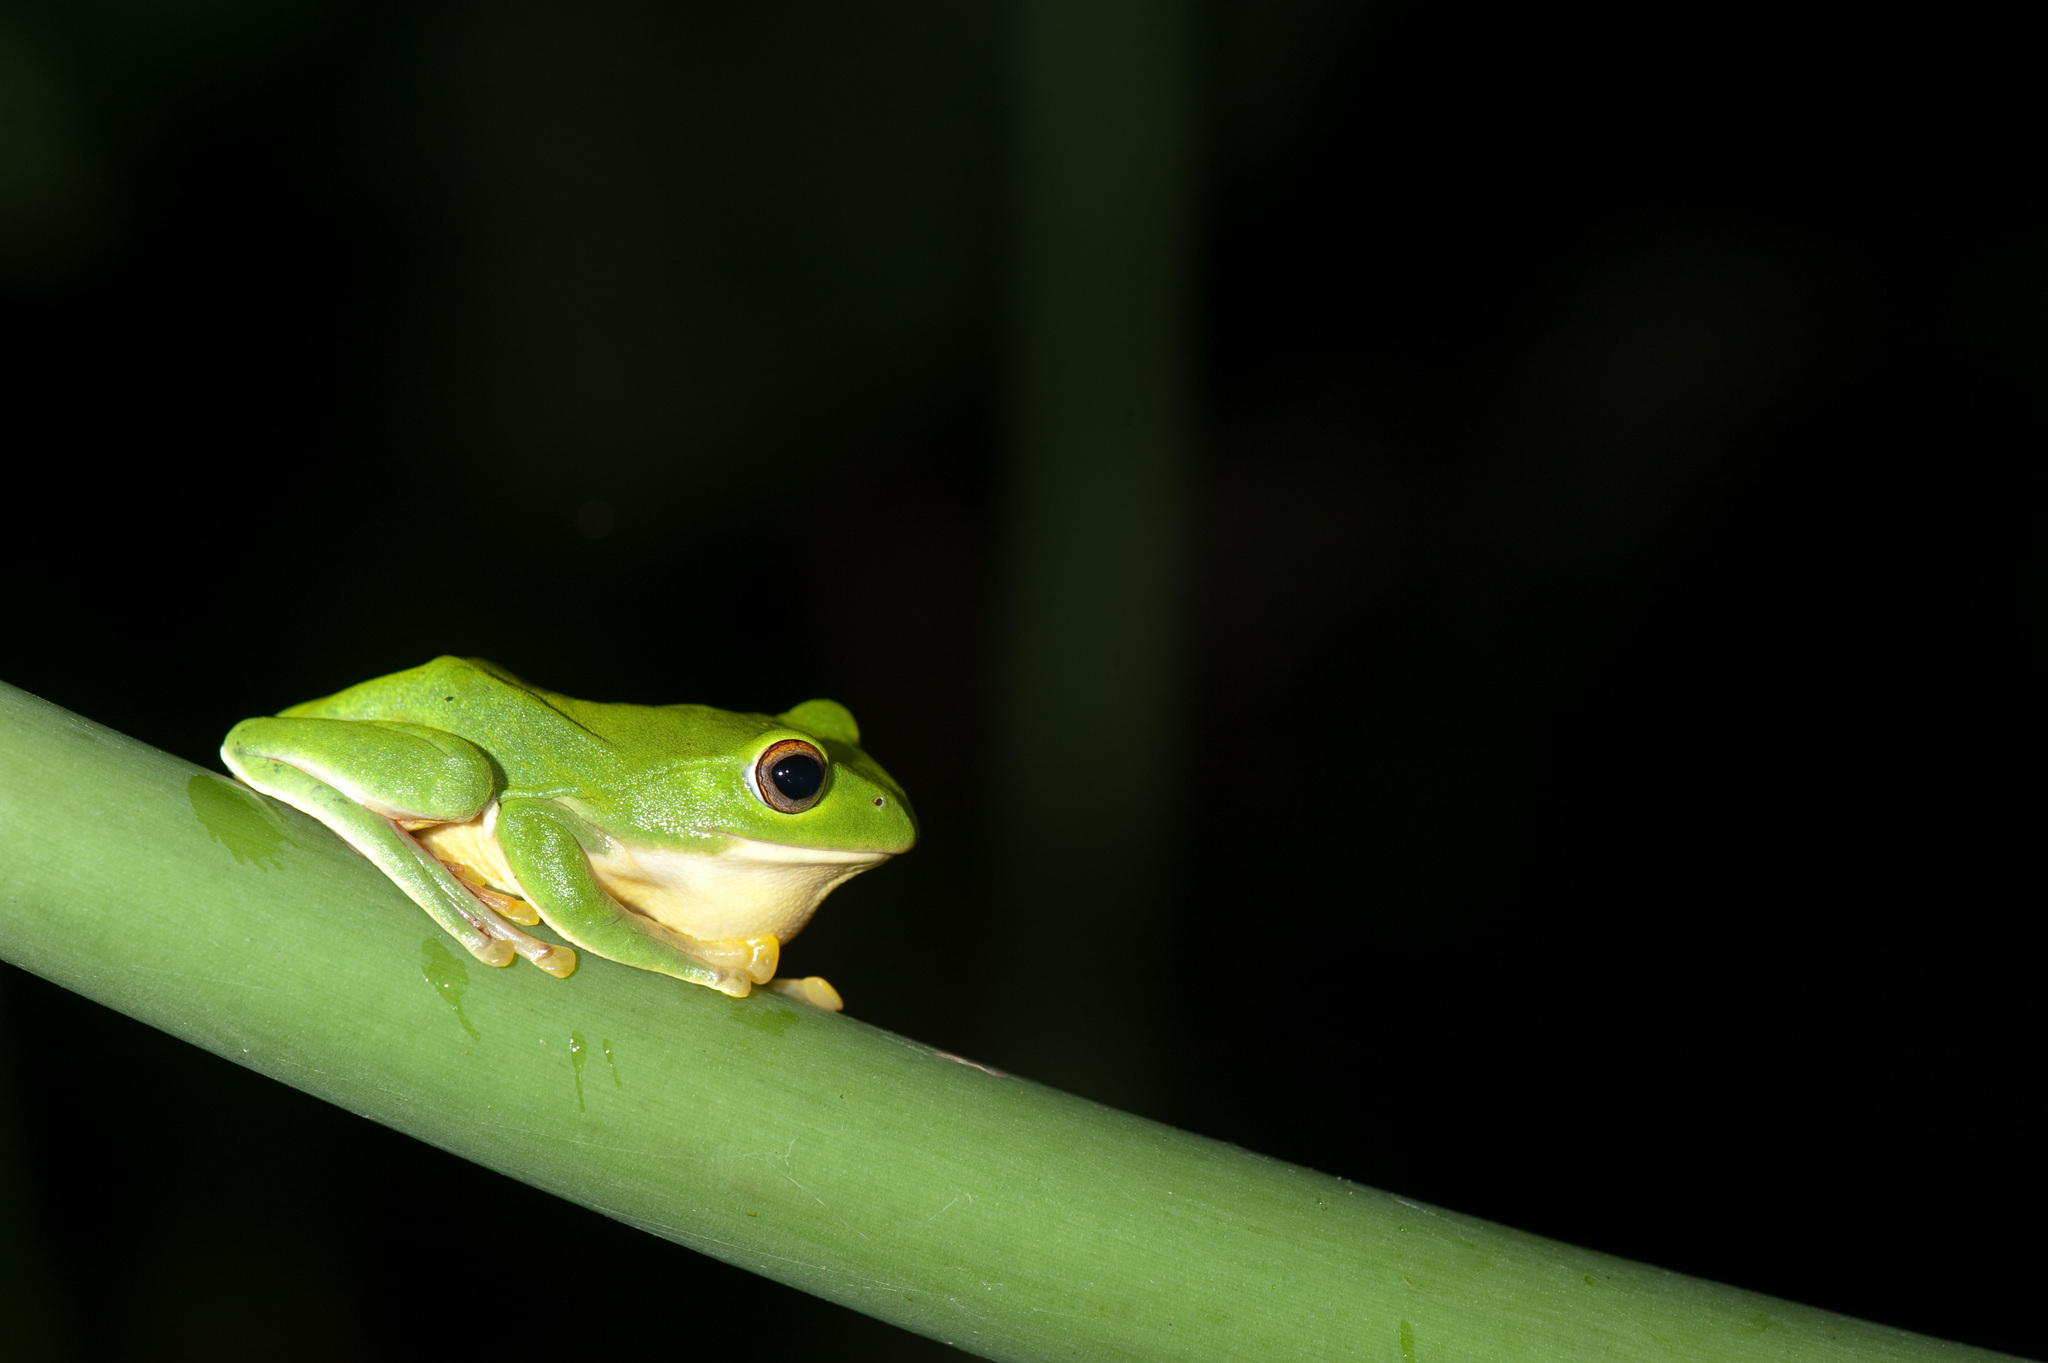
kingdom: Animalia
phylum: Chordata
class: Amphibia
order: Anura
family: Rhacophoridae
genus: Zhangixalus
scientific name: Zhangixalus moltrechti
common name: Moltrecht's treefrog
